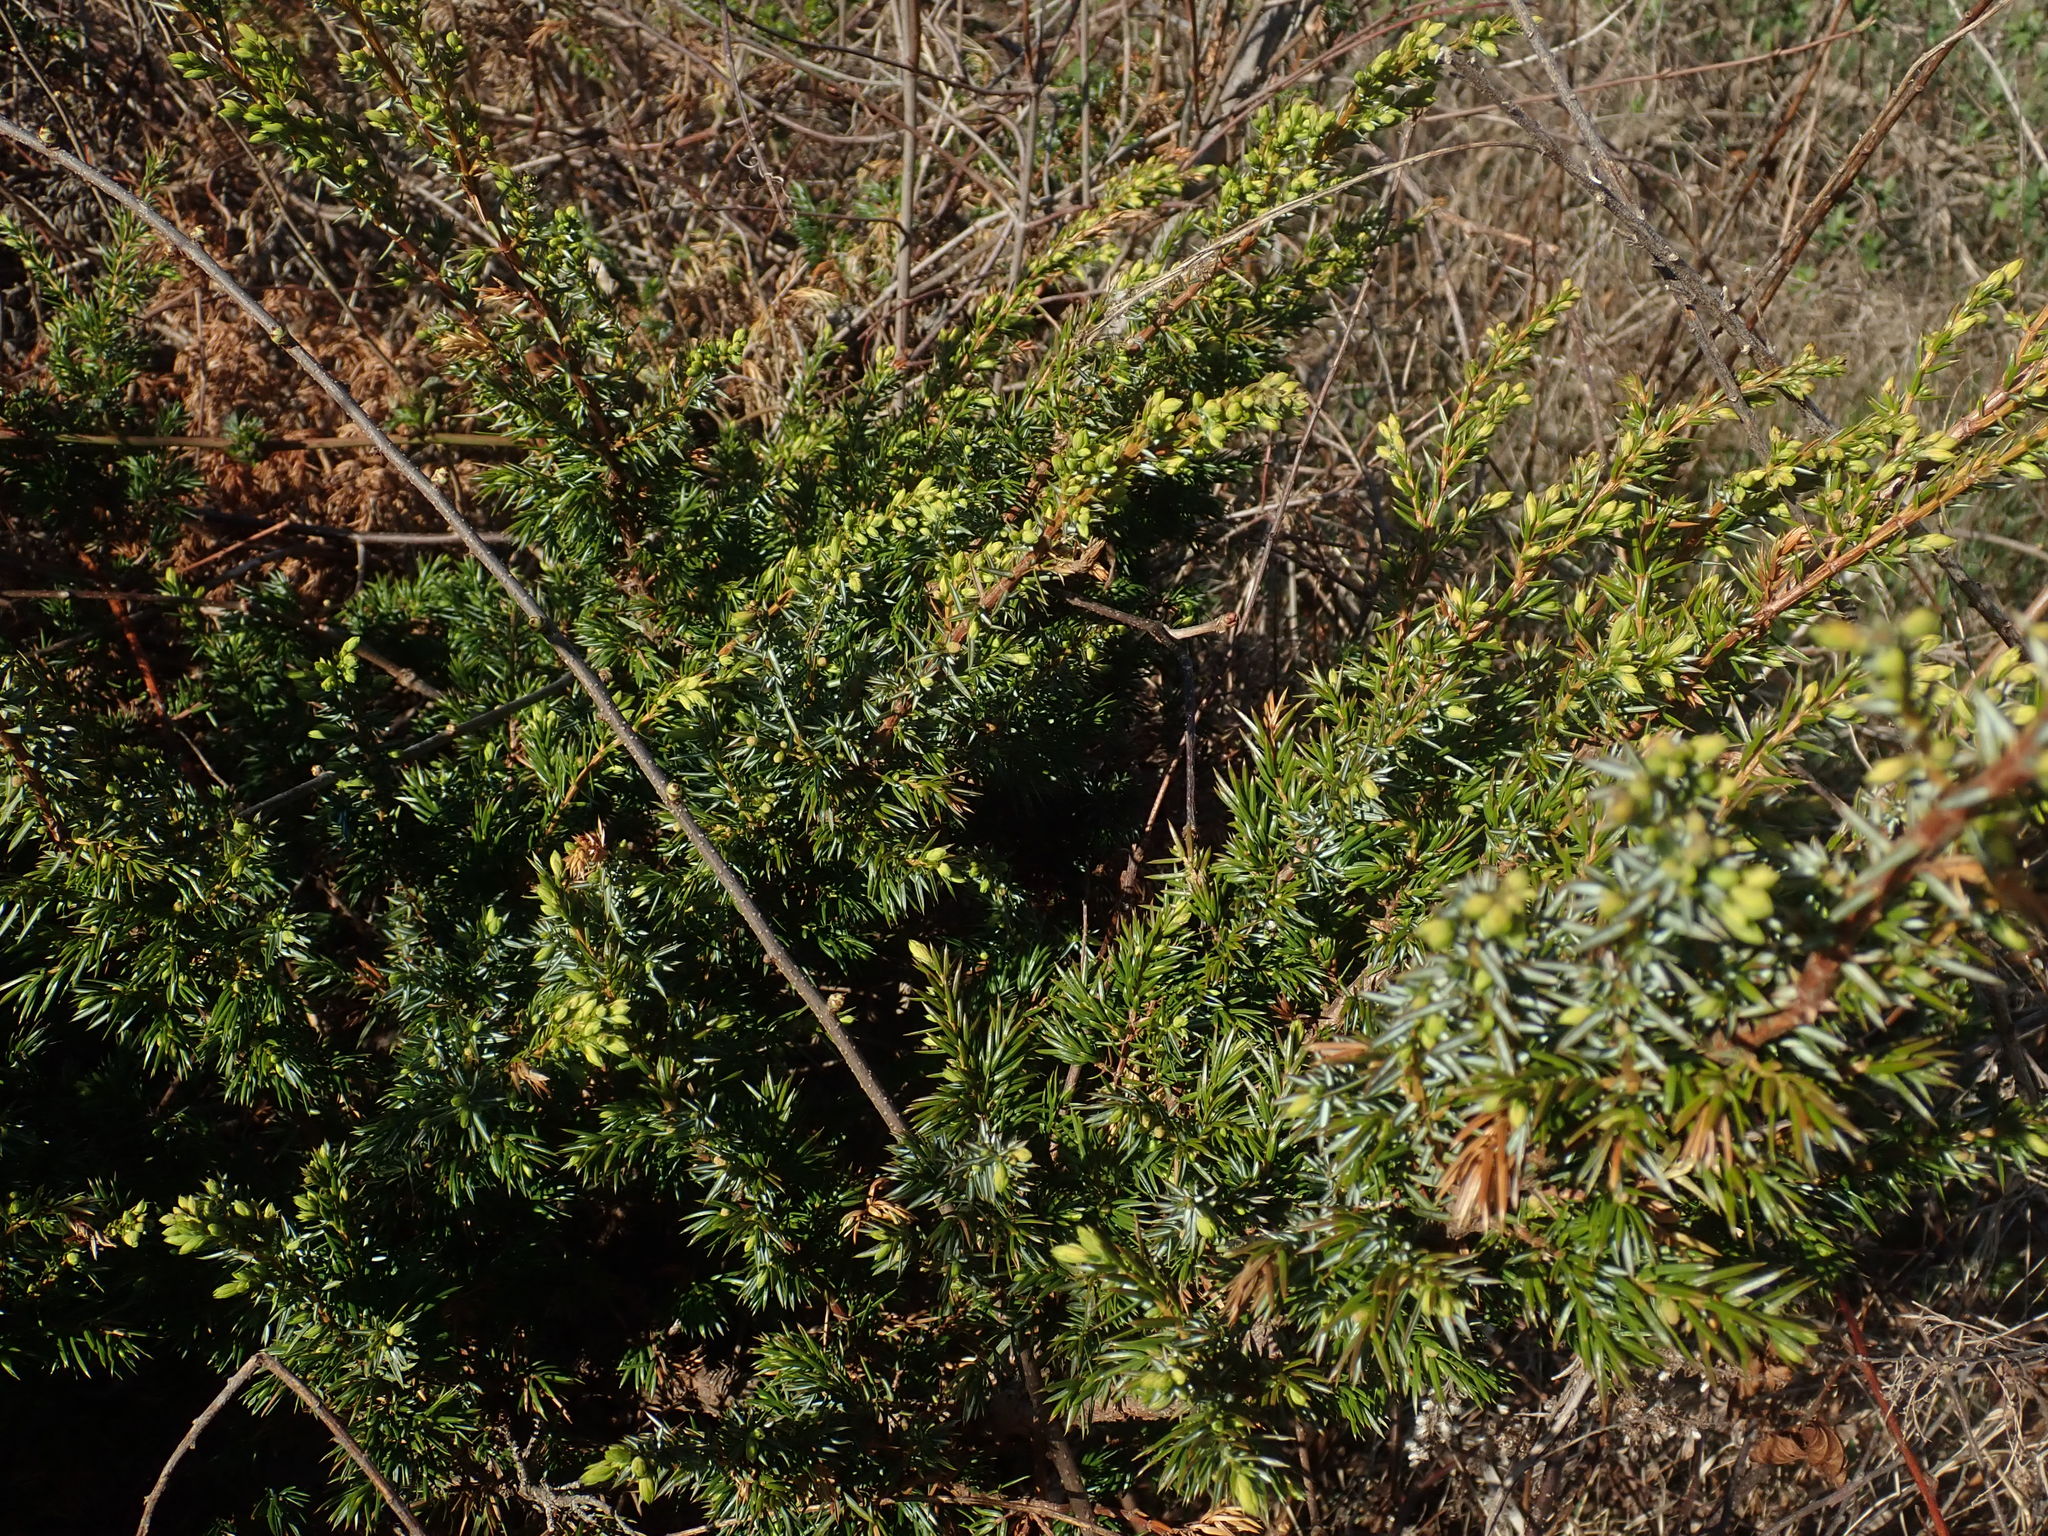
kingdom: Plantae
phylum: Tracheophyta
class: Pinopsida
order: Pinales
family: Cupressaceae
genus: Juniperus
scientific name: Juniperus communis
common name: Common juniper
